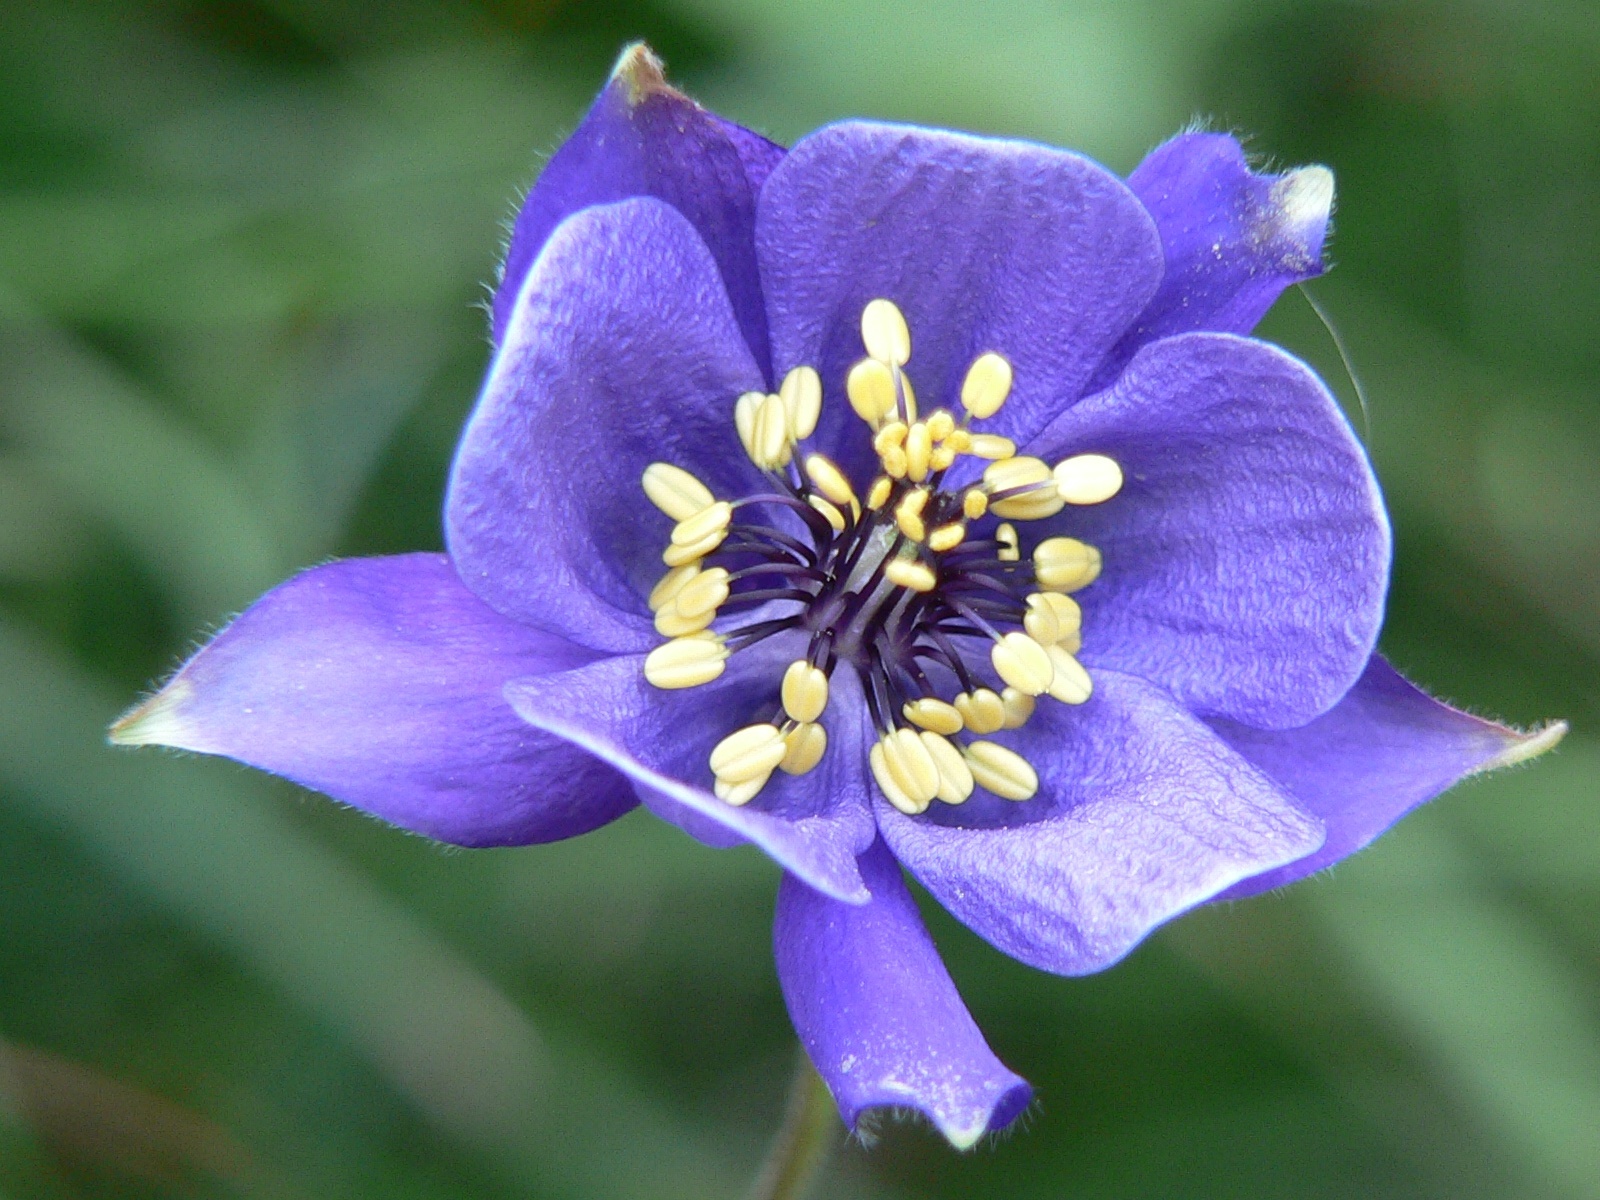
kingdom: Plantae
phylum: Tracheophyta
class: Magnoliopsida
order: Ranunculales
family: Ranunculaceae
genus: Aquilegia
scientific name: Aquilegia einseleana
